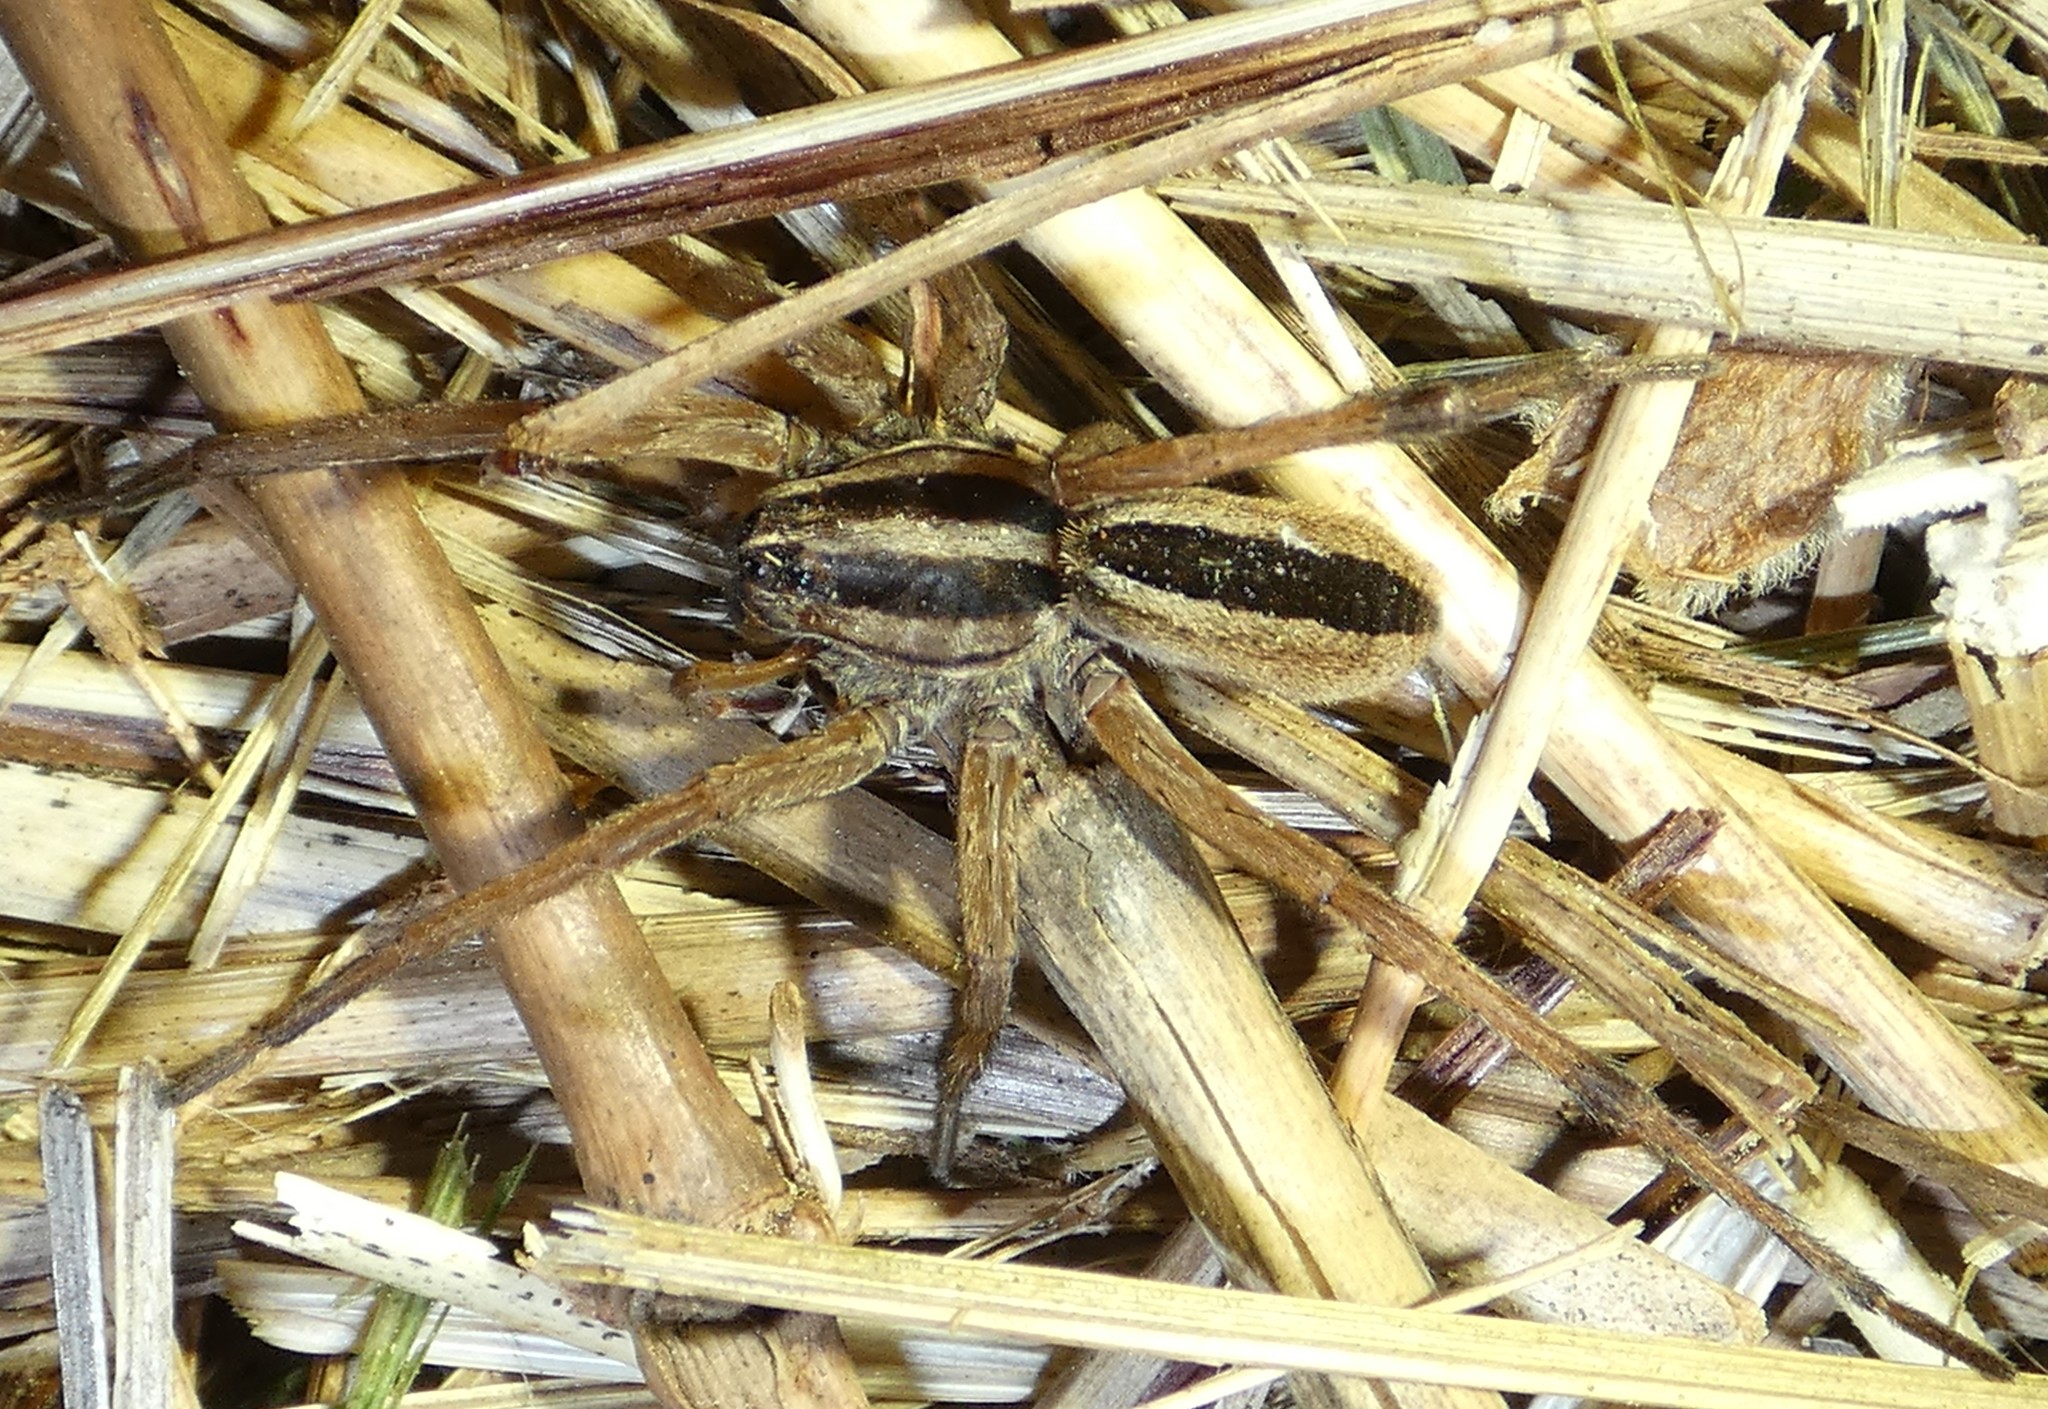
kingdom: Animalia
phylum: Arthropoda
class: Arachnida
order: Araneae
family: Lycosidae
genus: Rabidosa
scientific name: Rabidosa punctulata
